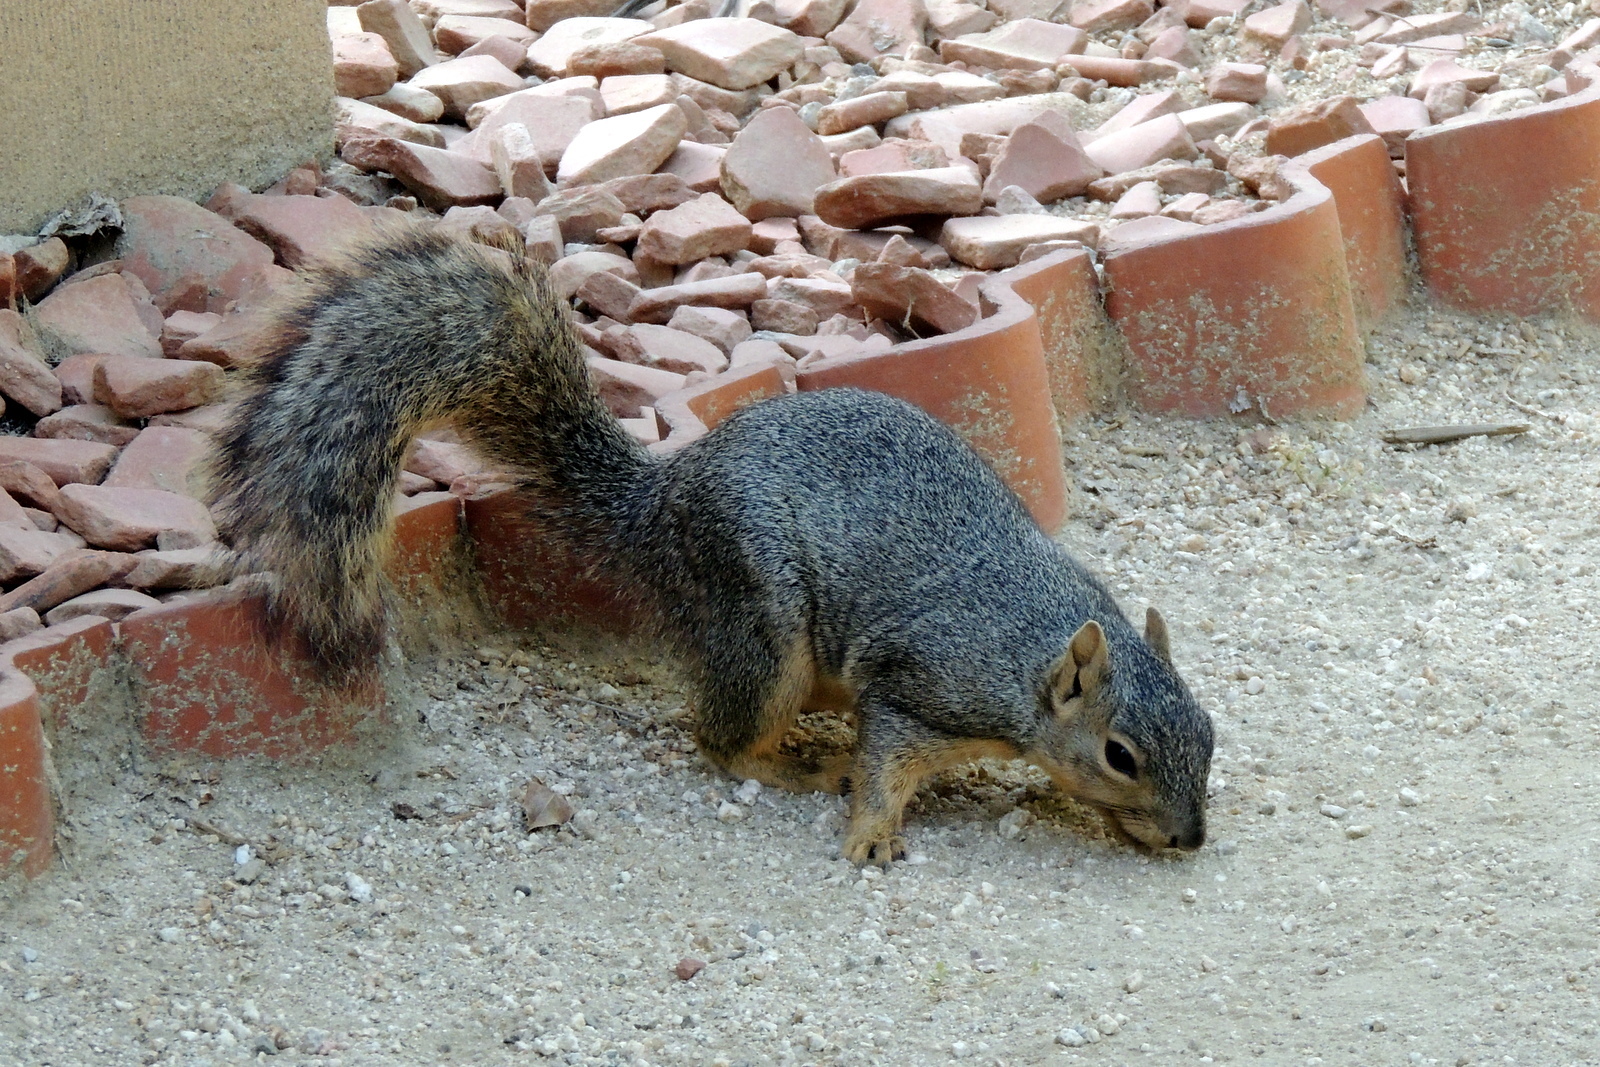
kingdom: Animalia
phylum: Chordata
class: Mammalia
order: Rodentia
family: Sciuridae
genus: Sciurus
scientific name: Sciurus niger
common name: Fox squirrel
